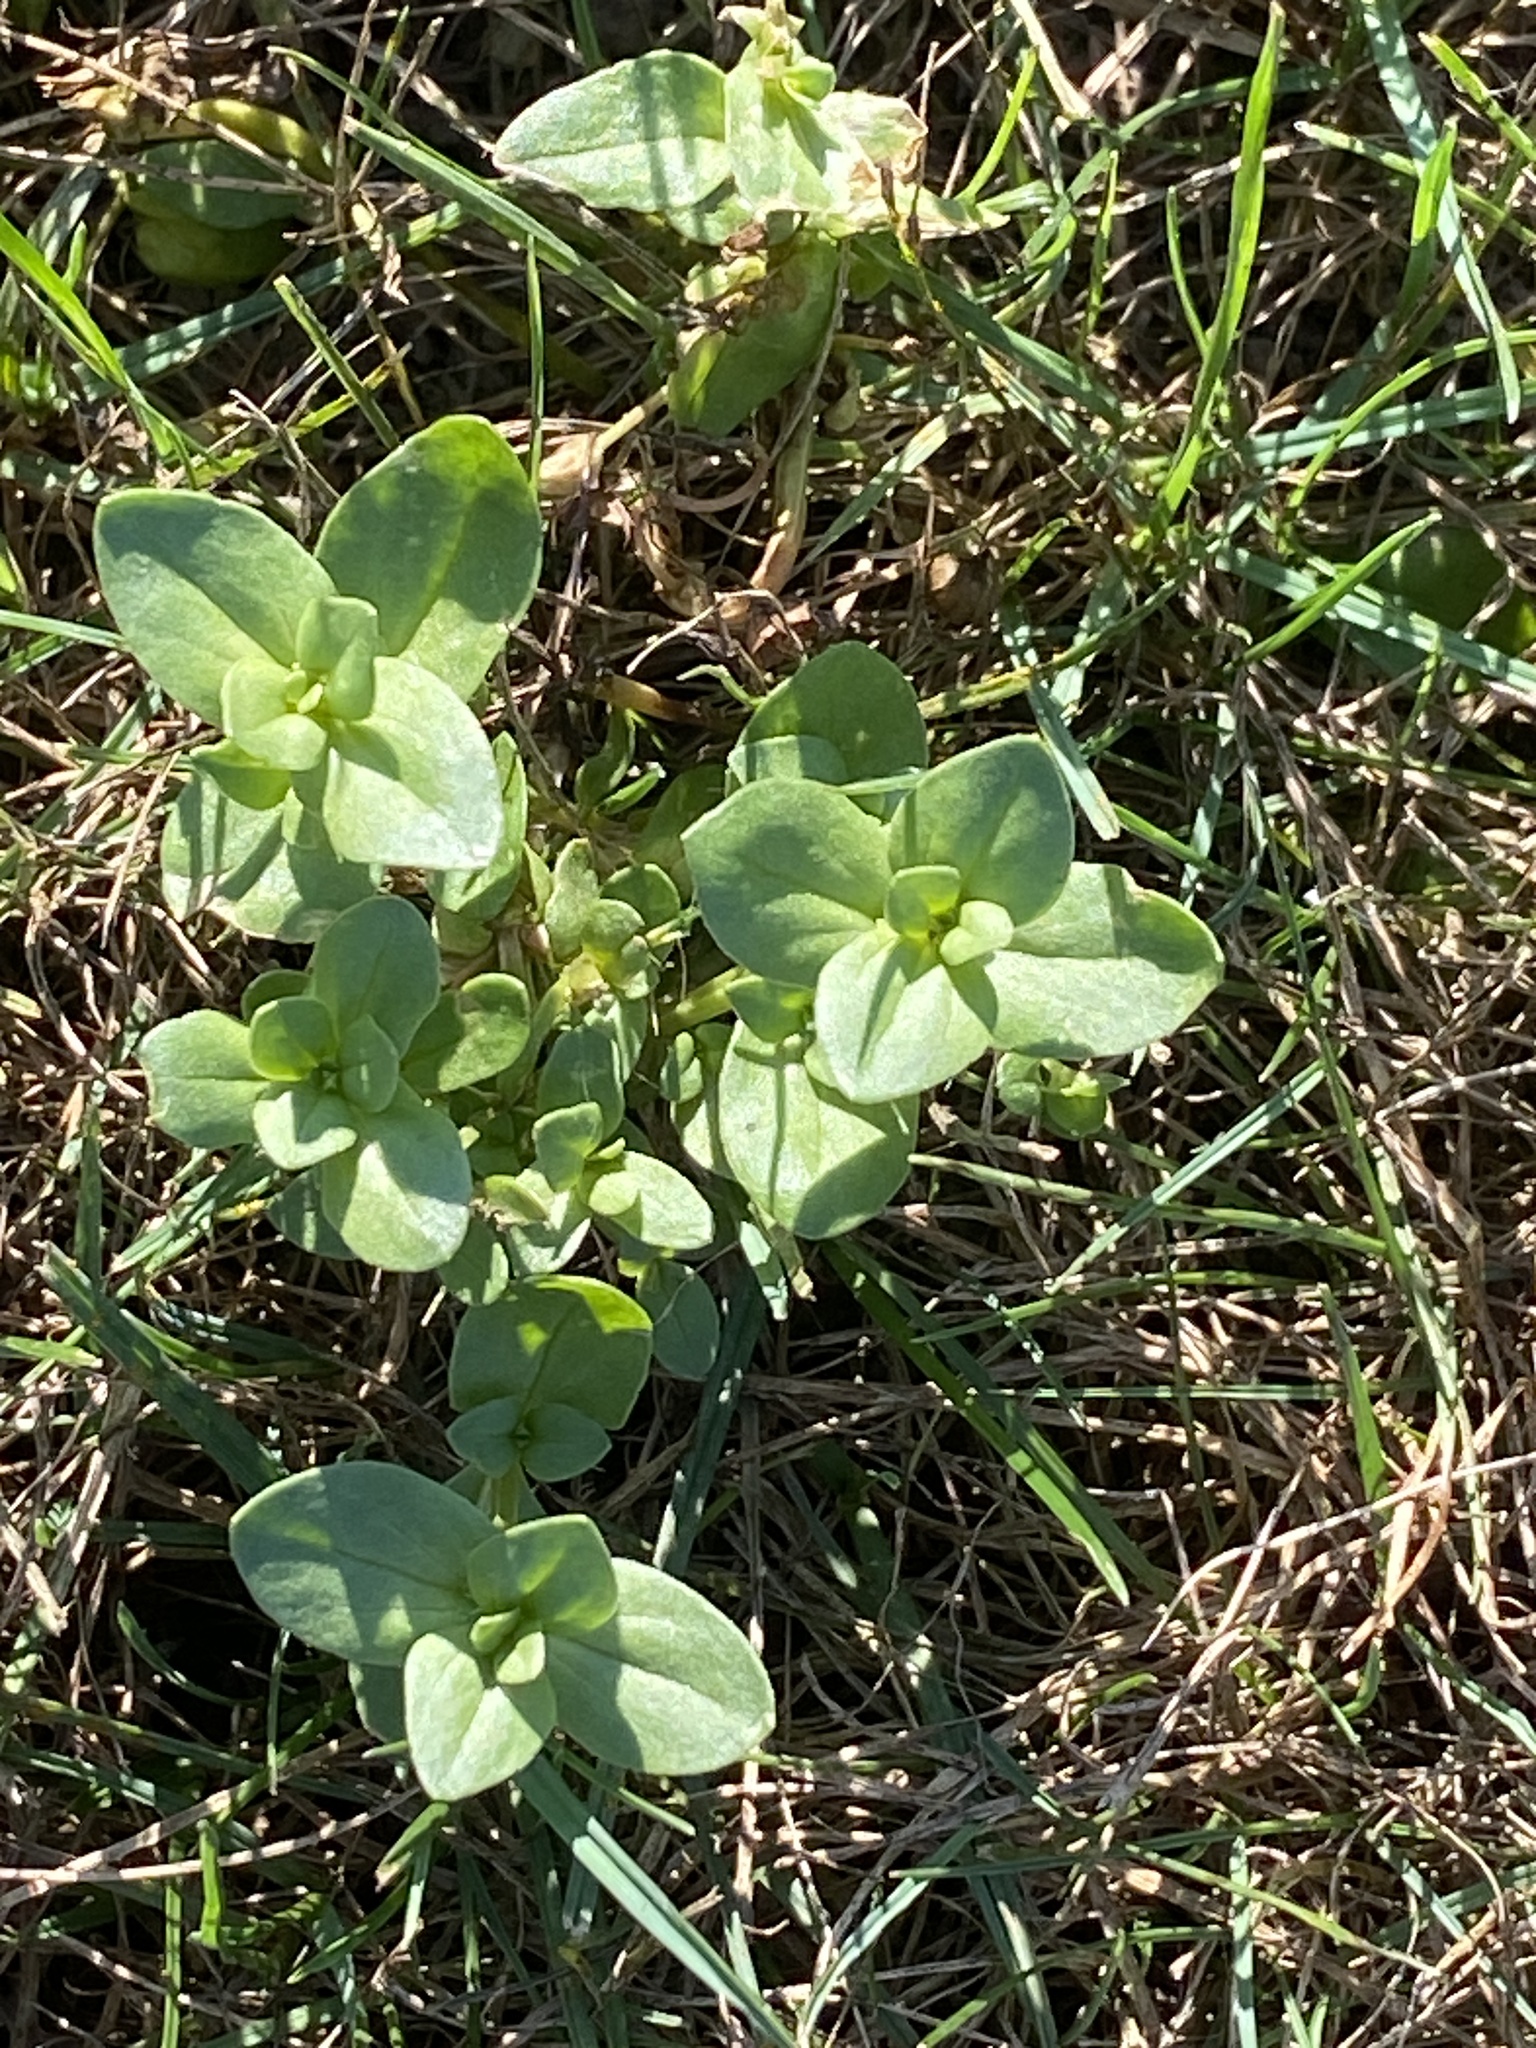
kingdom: Plantae
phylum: Tracheophyta
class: Magnoliopsida
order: Ericales
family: Primulaceae
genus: Lysimachia
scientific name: Lysimachia arvensis
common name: Scarlet pimpernel
